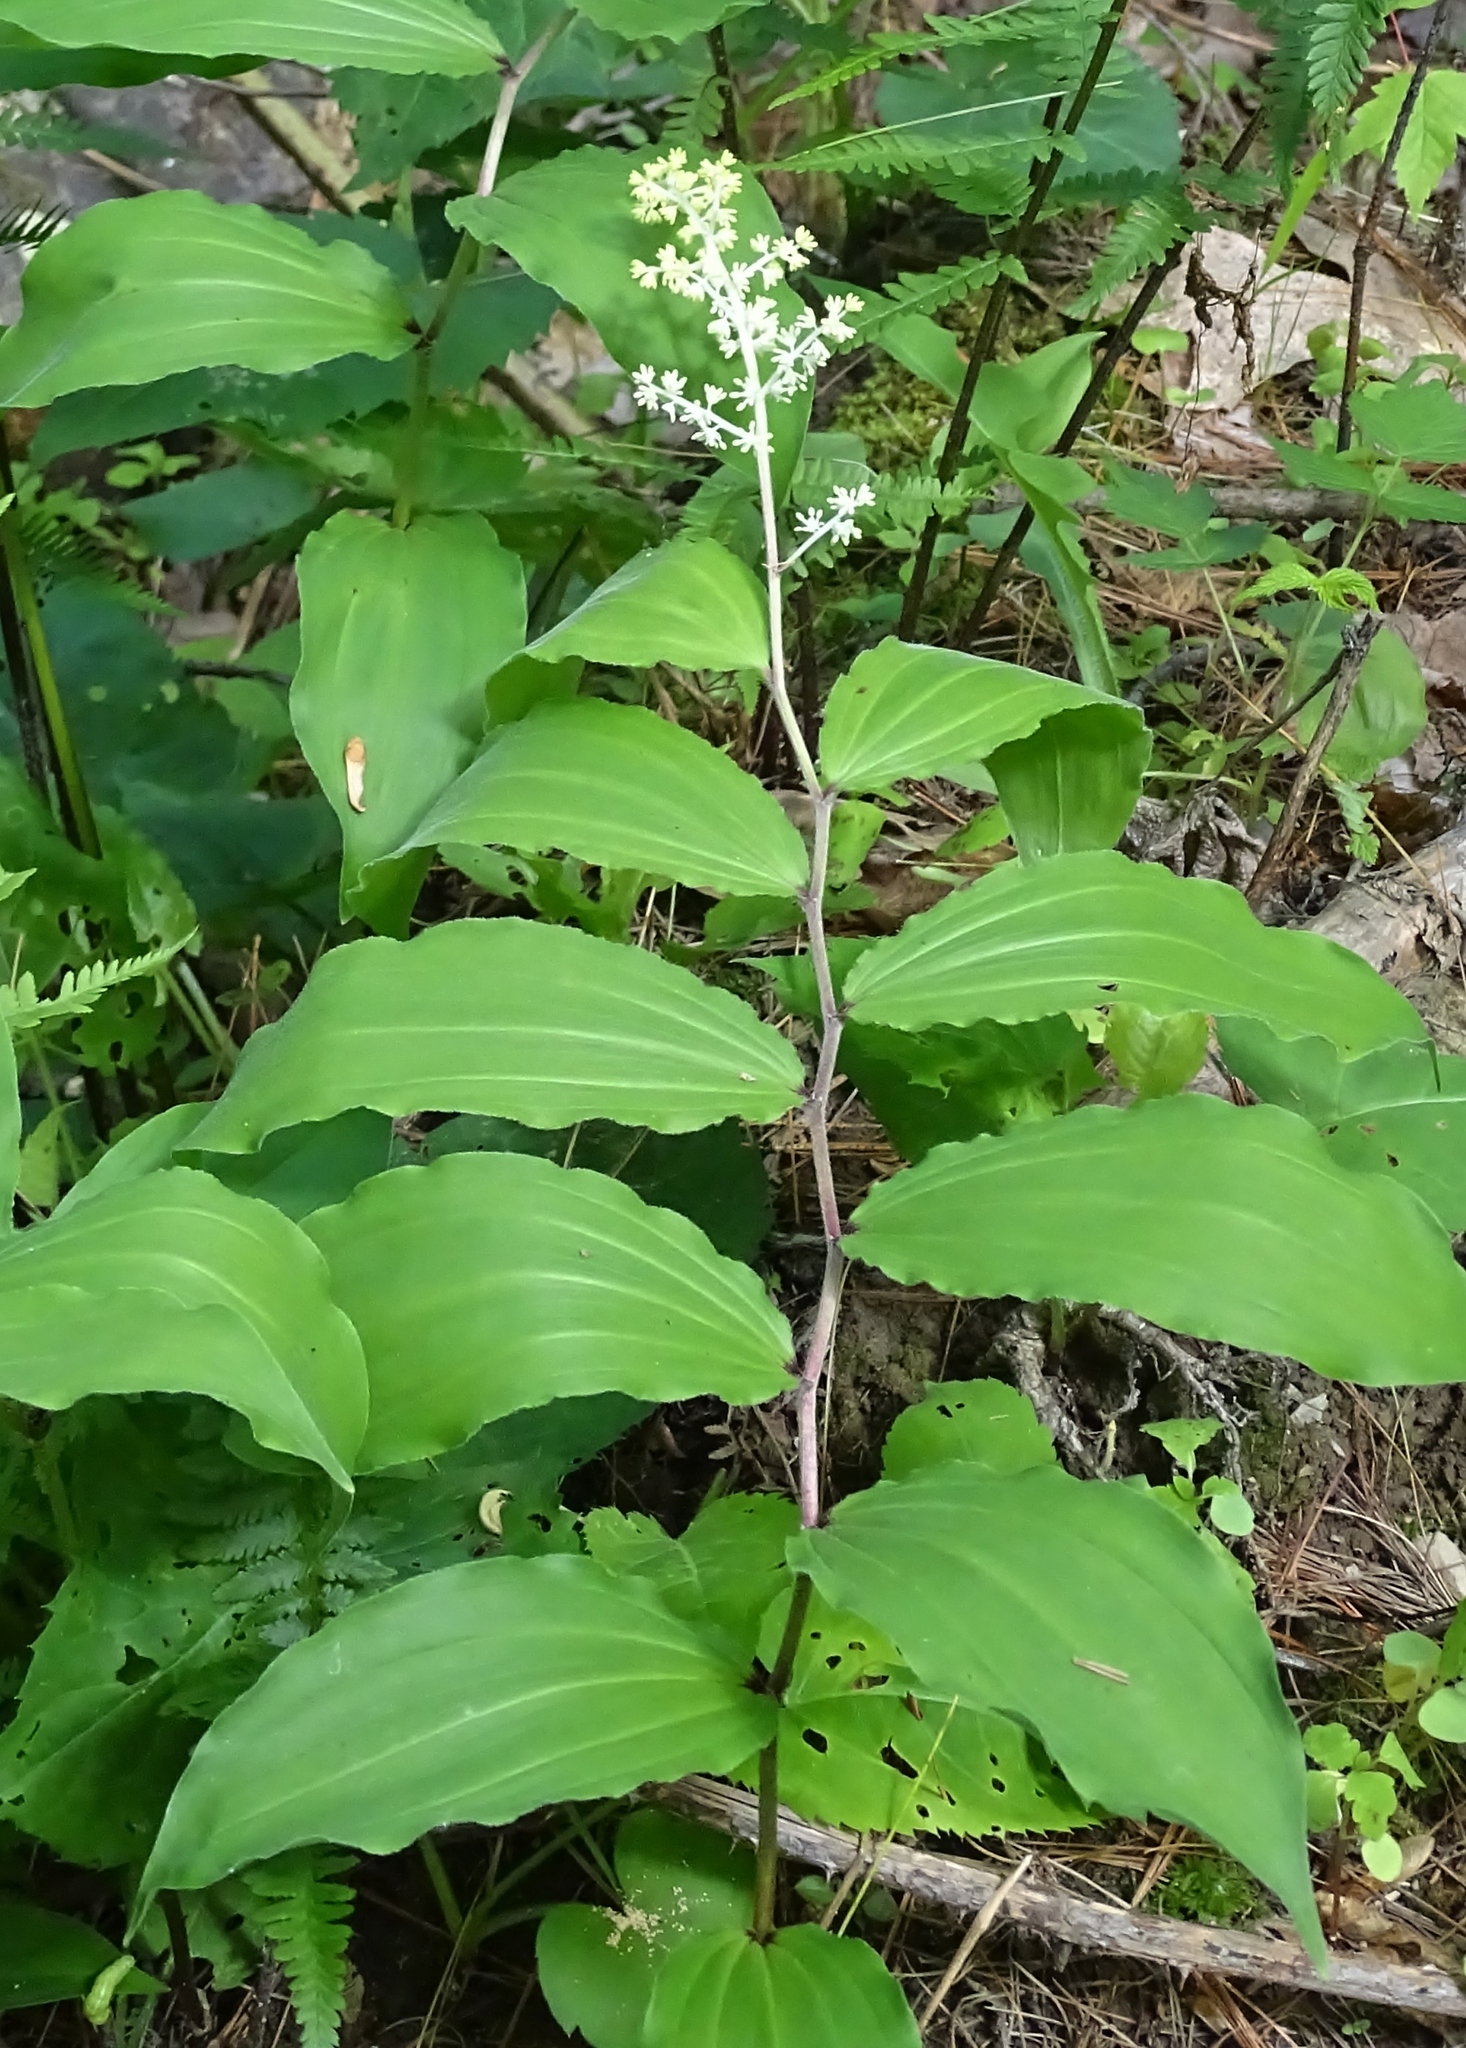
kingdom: Plantae
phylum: Tracheophyta
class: Liliopsida
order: Asparagales
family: Asparagaceae
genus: Maianthemum
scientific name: Maianthemum racemosum
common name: False spikenard
